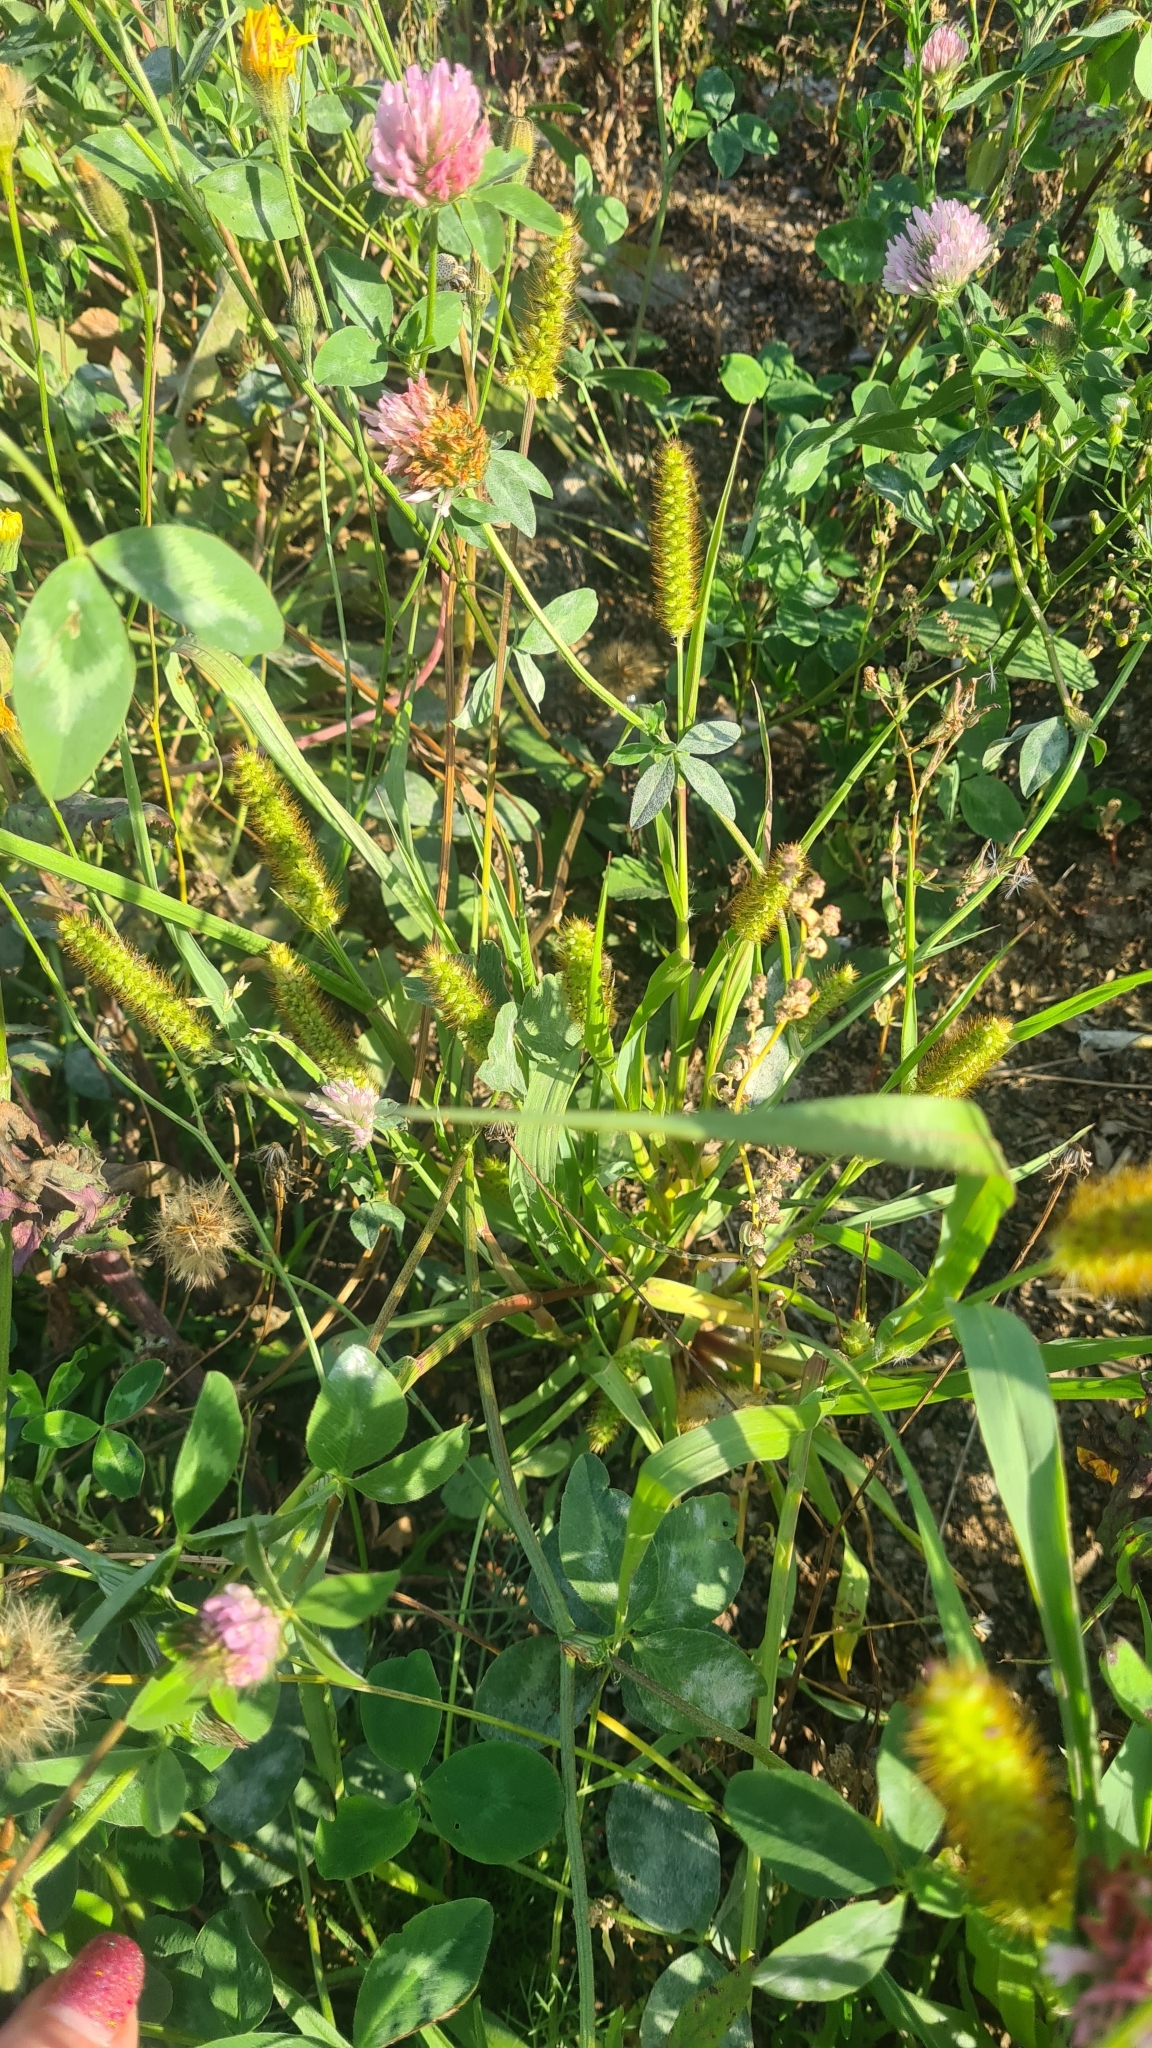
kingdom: Plantae
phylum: Tracheophyta
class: Liliopsida
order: Poales
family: Poaceae
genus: Setaria
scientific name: Setaria pumila
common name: Yellow bristle-grass
